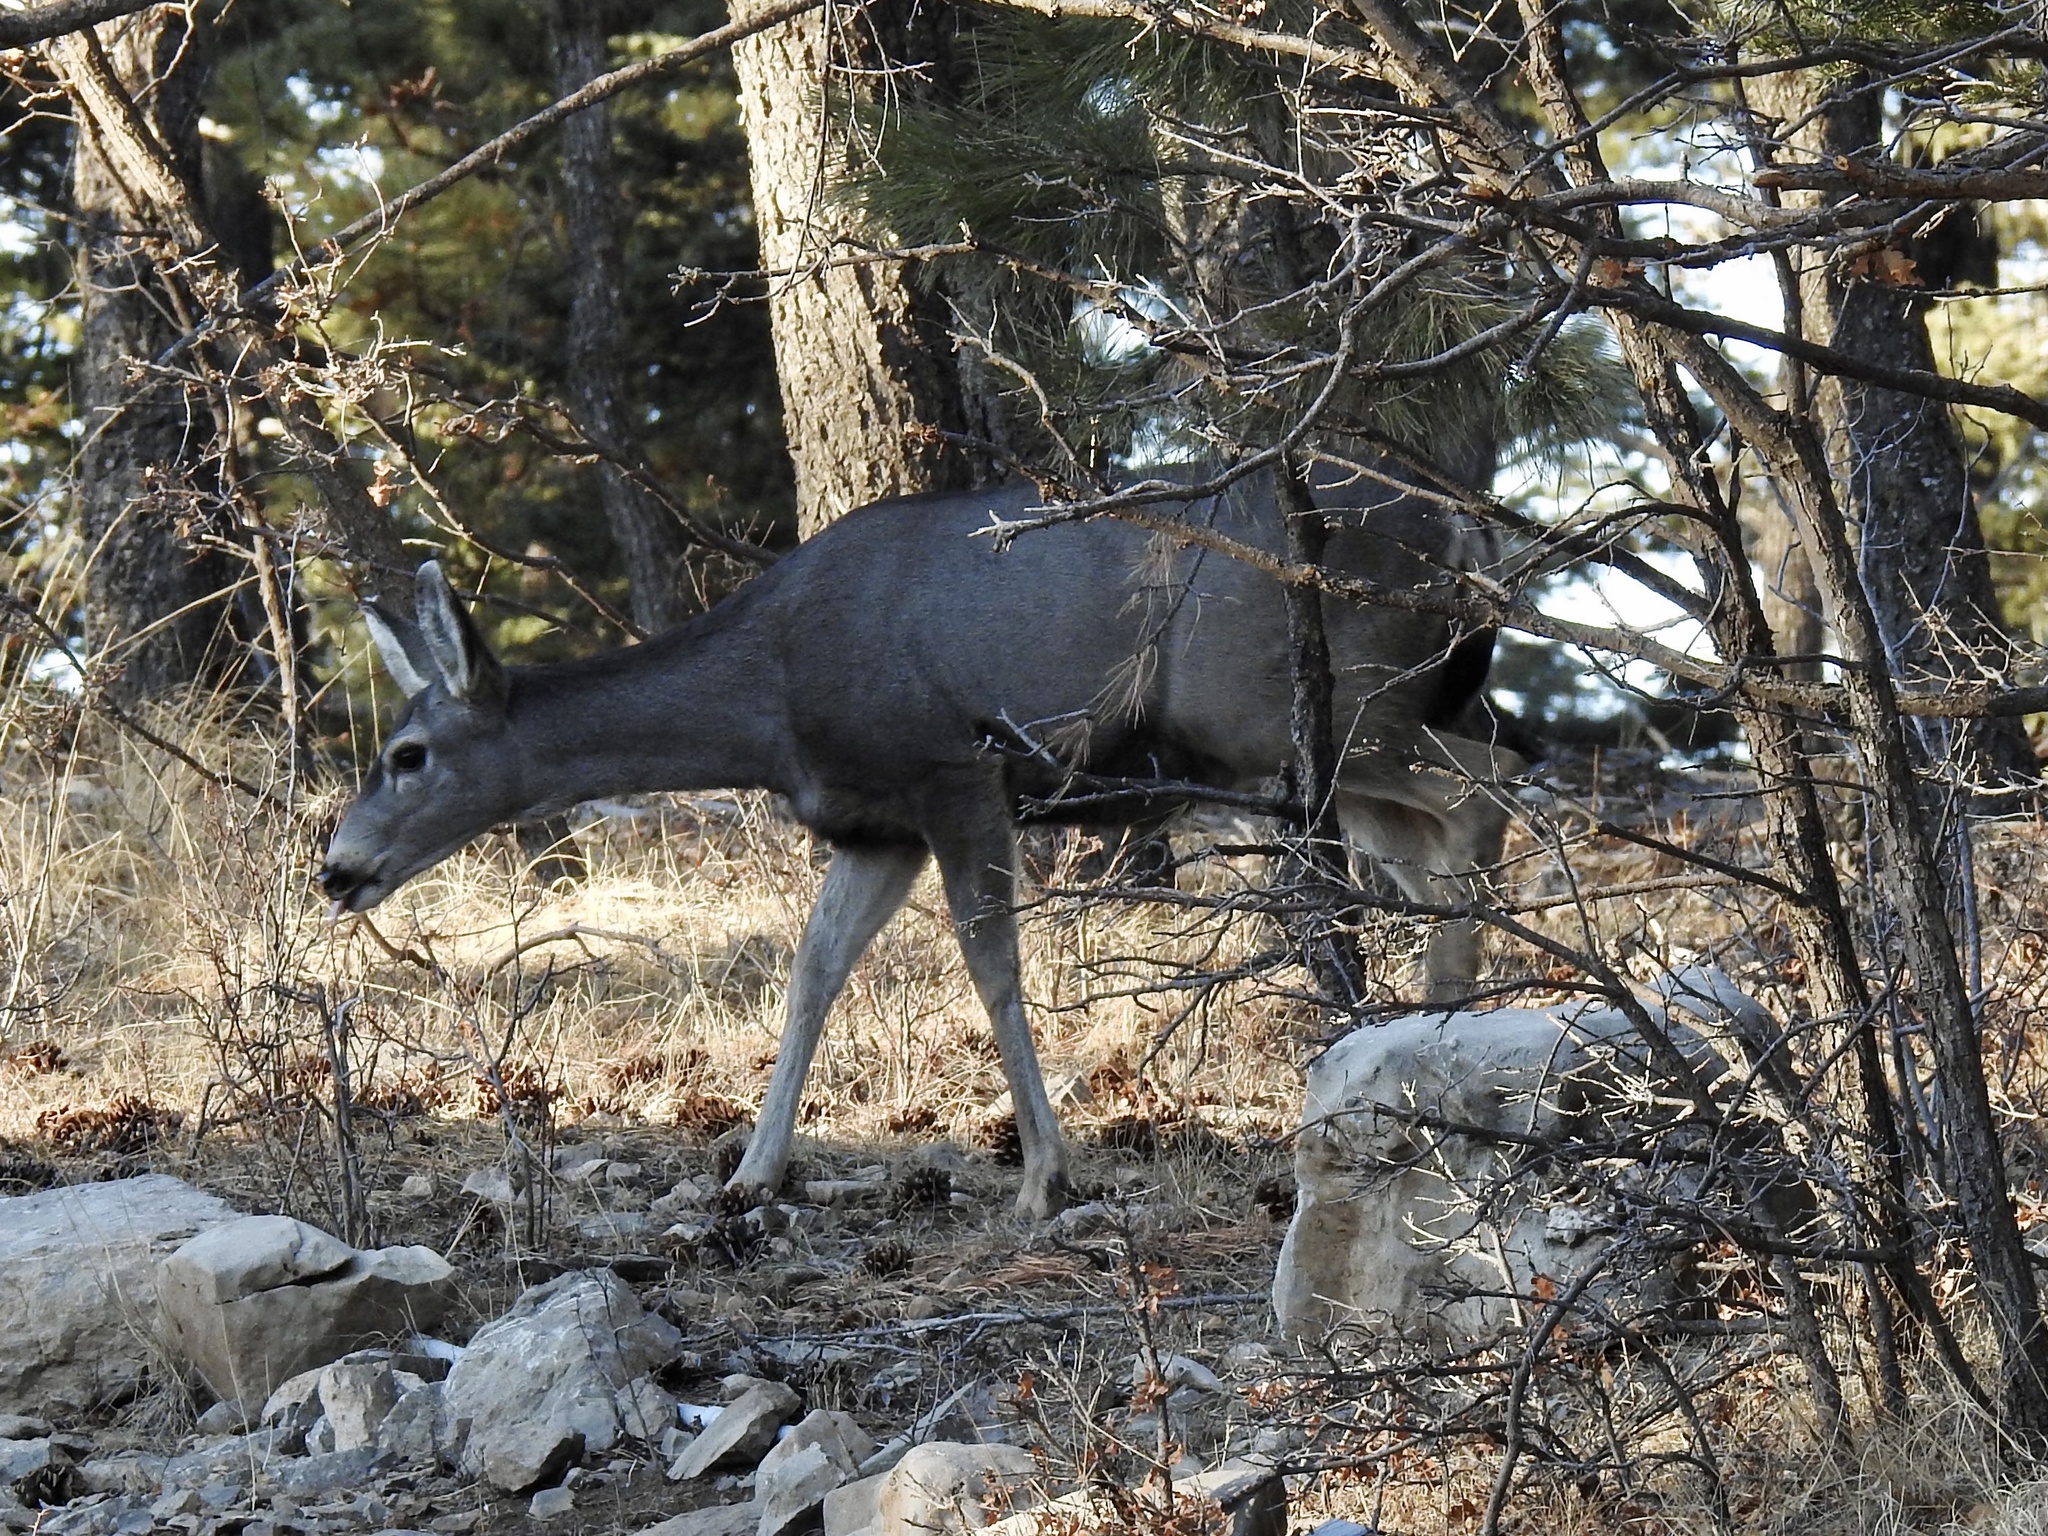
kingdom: Animalia
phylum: Chordata
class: Mammalia
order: Artiodactyla
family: Cervidae
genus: Odocoileus
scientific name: Odocoileus hemionus
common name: Mule deer
